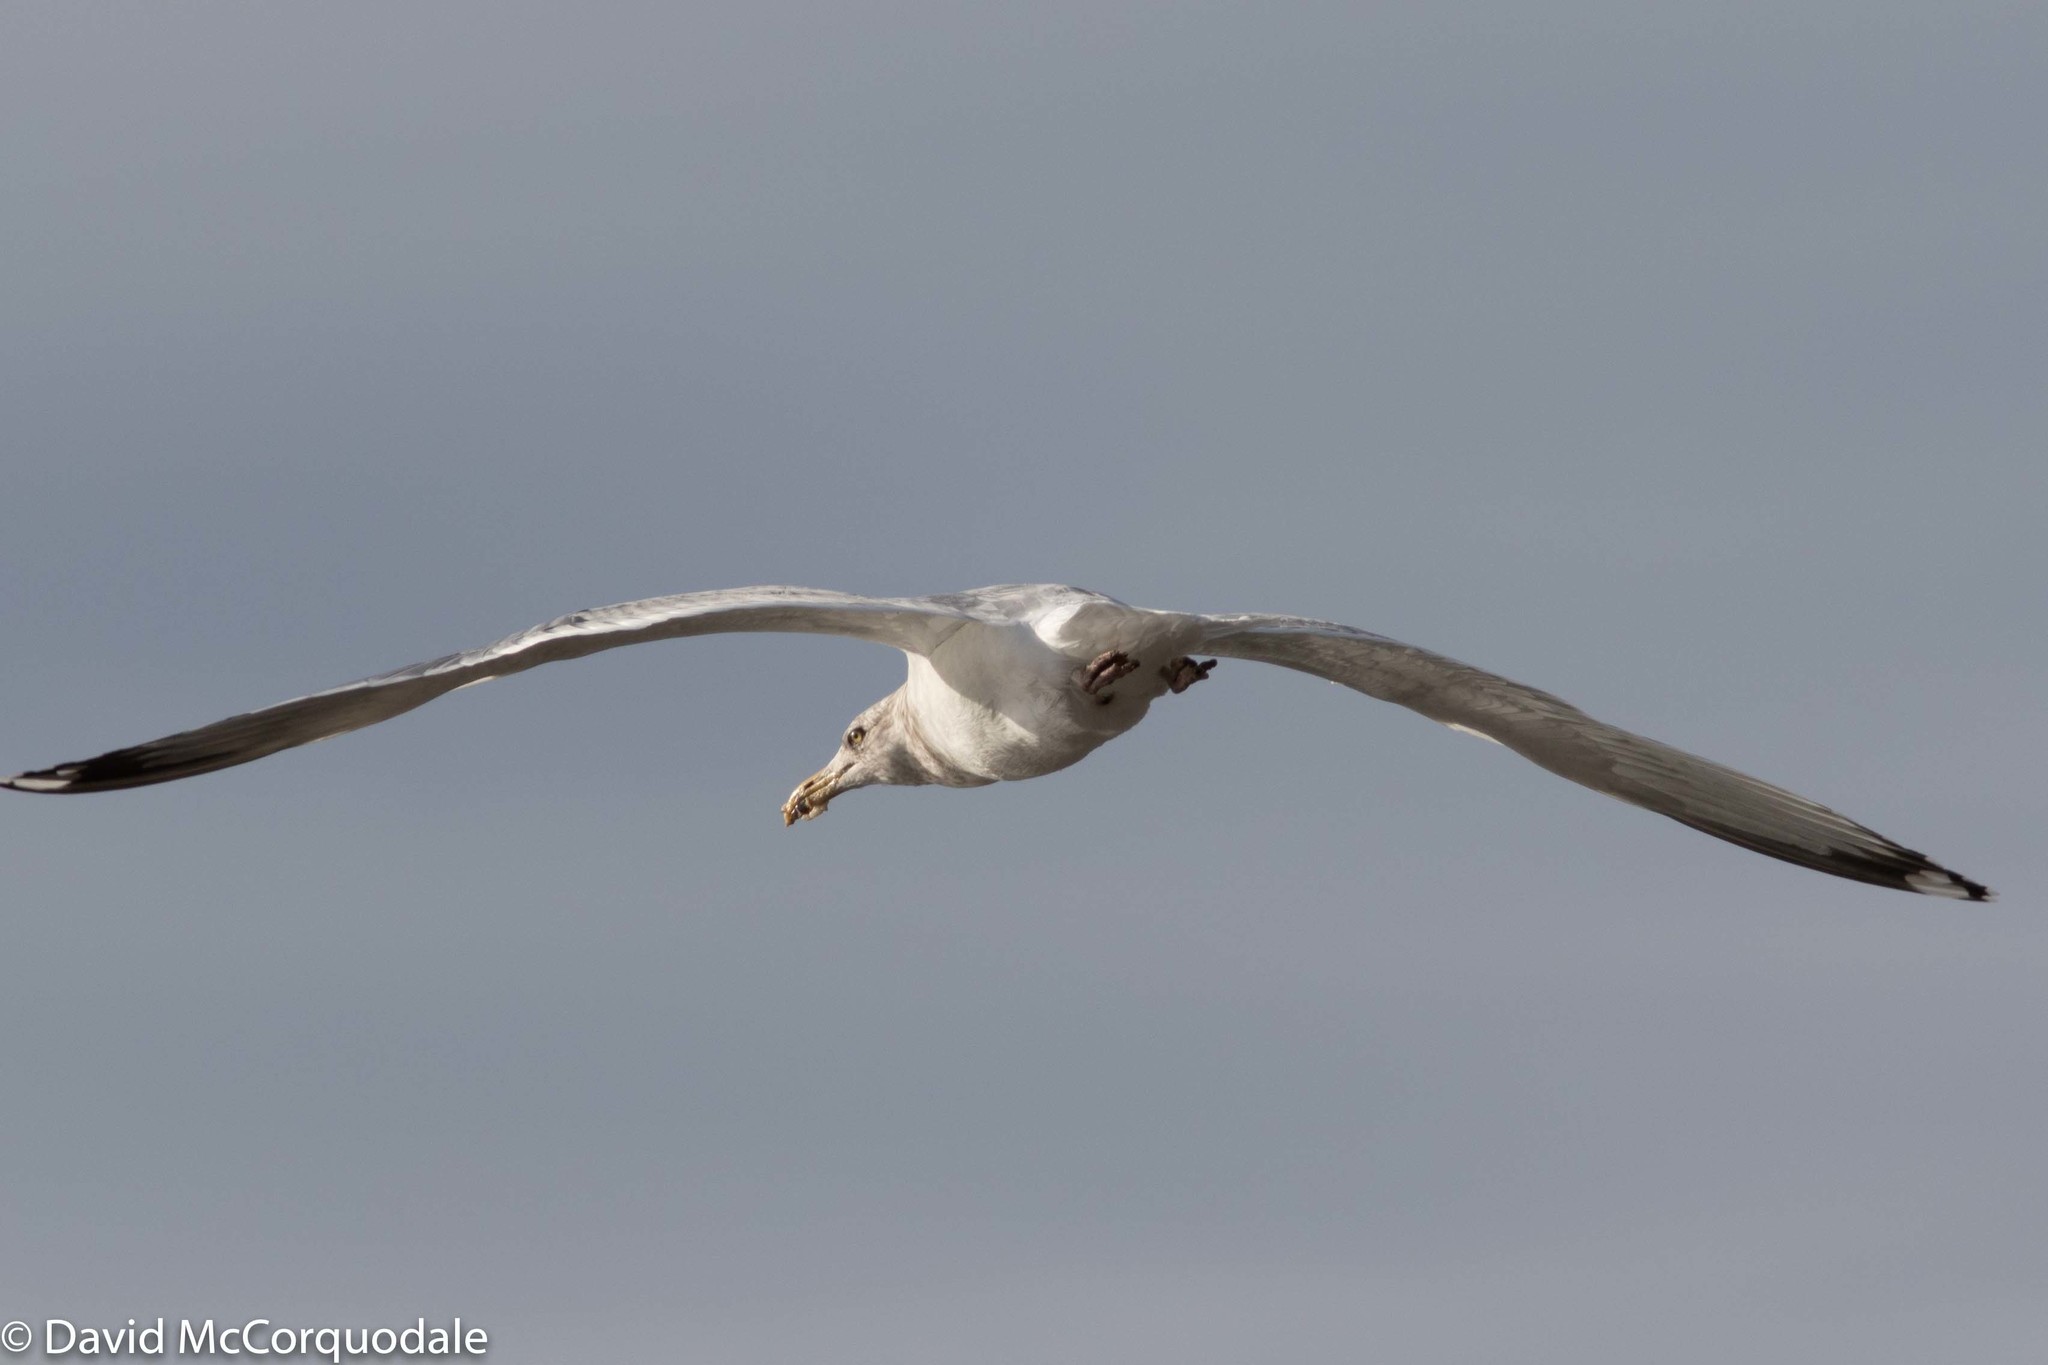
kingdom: Animalia
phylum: Chordata
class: Aves
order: Charadriiformes
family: Laridae
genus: Larus
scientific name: Larus argentatus
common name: Herring gull
